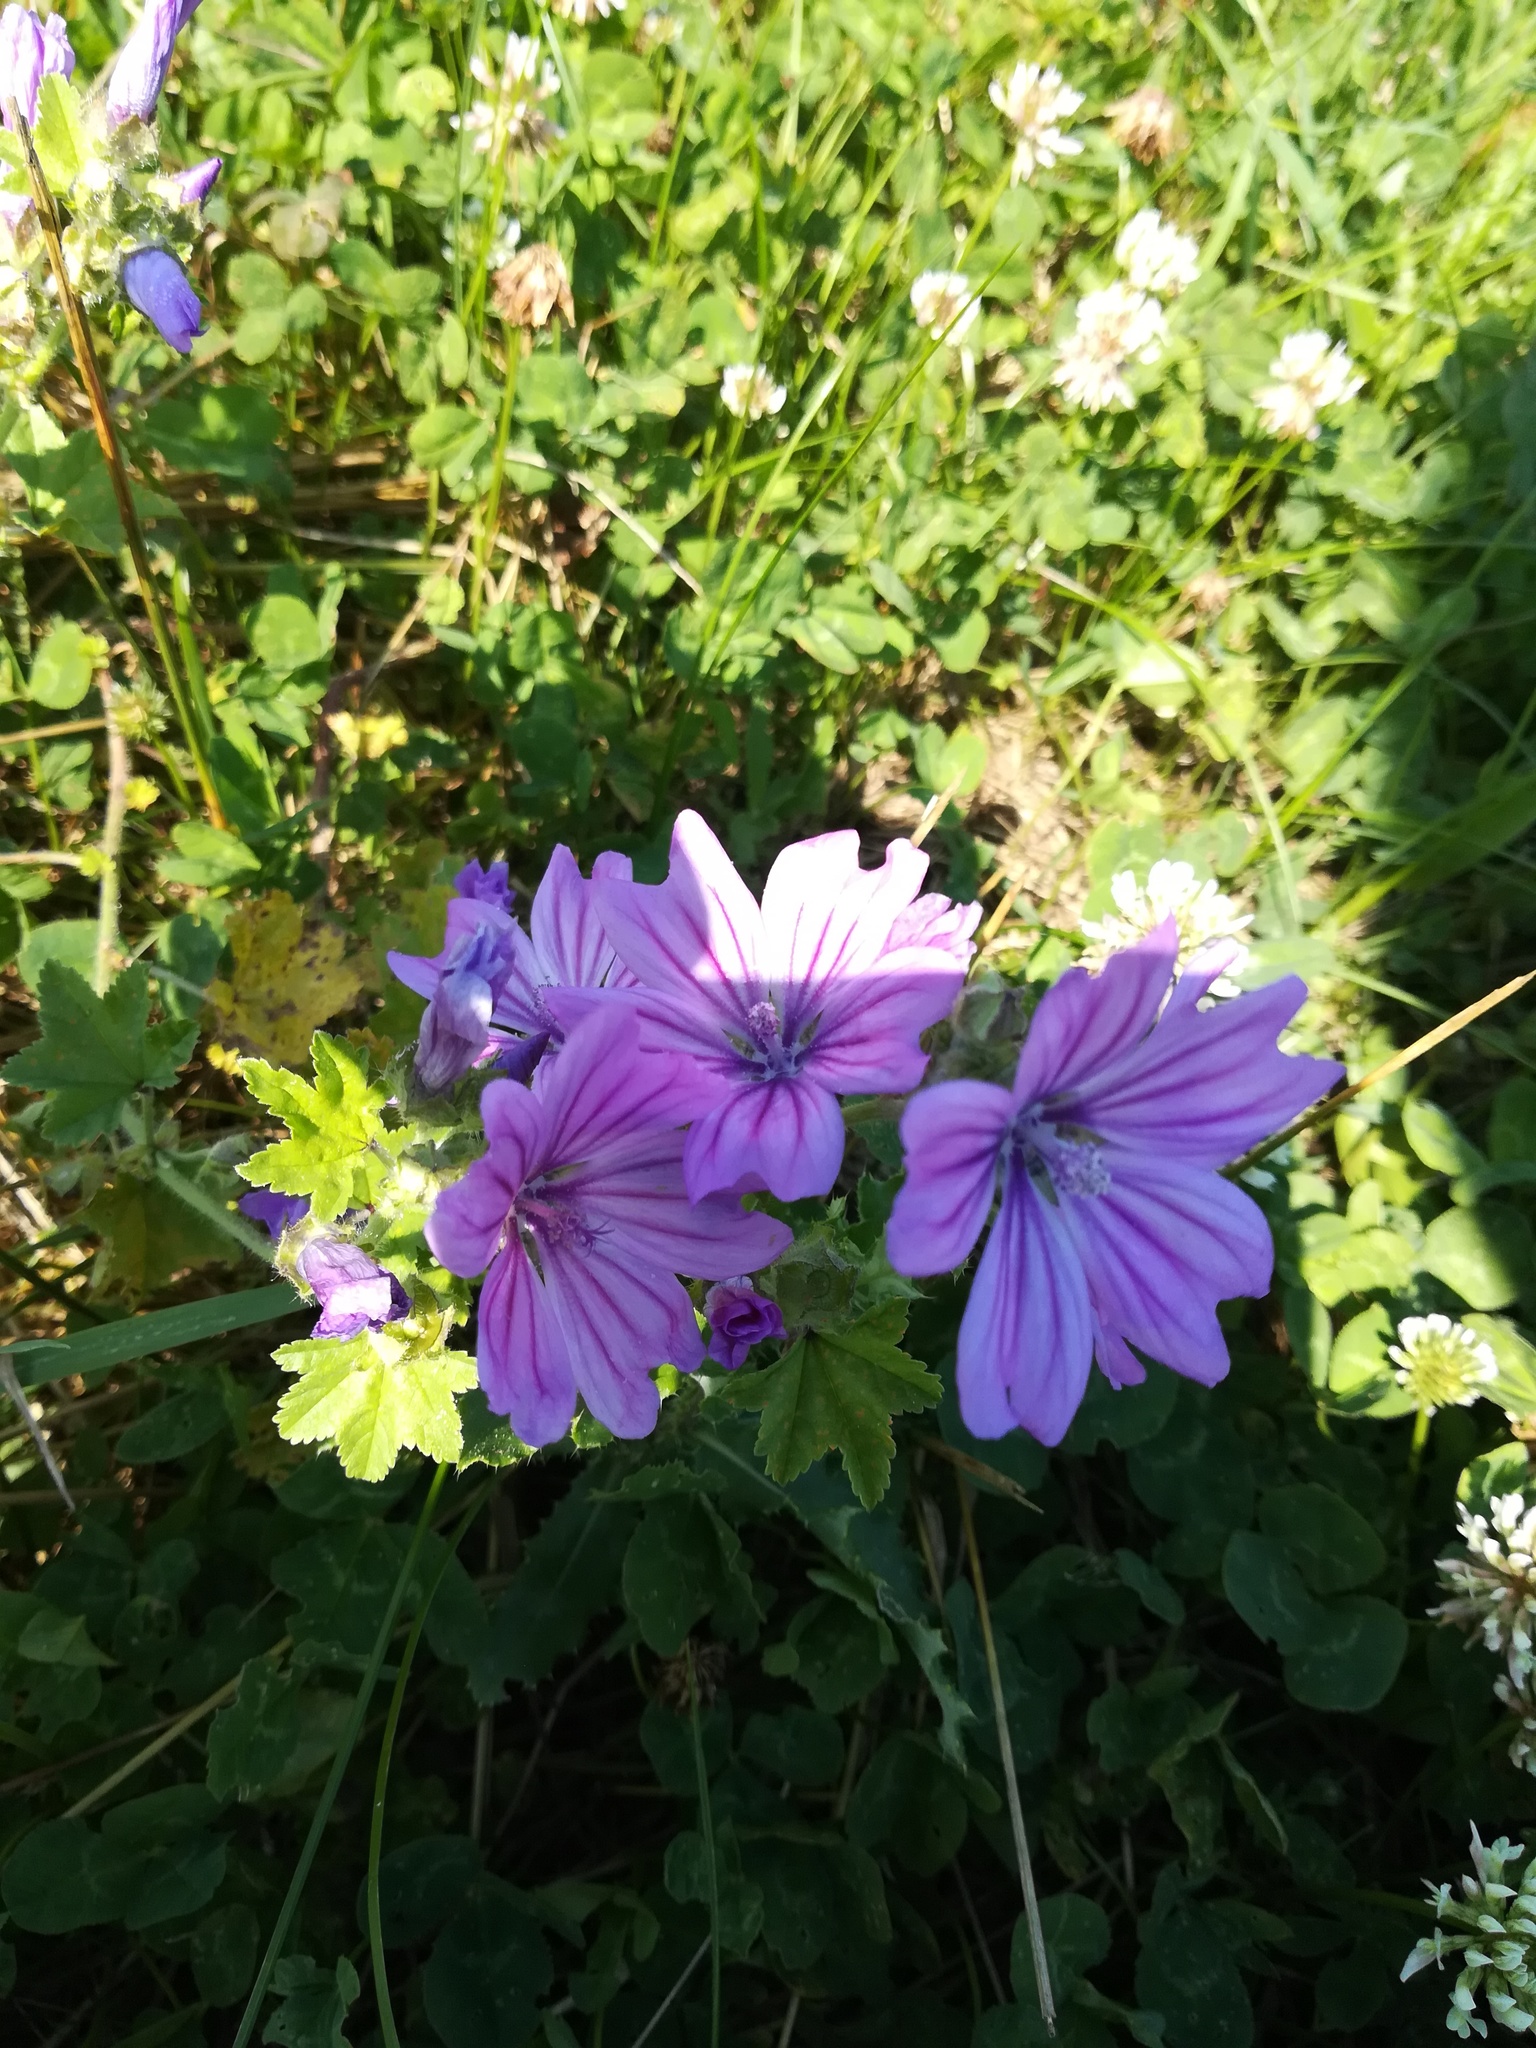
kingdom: Plantae
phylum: Tracheophyta
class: Magnoliopsida
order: Malvales
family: Malvaceae
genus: Malva
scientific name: Malva sylvestris
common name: Common mallow
